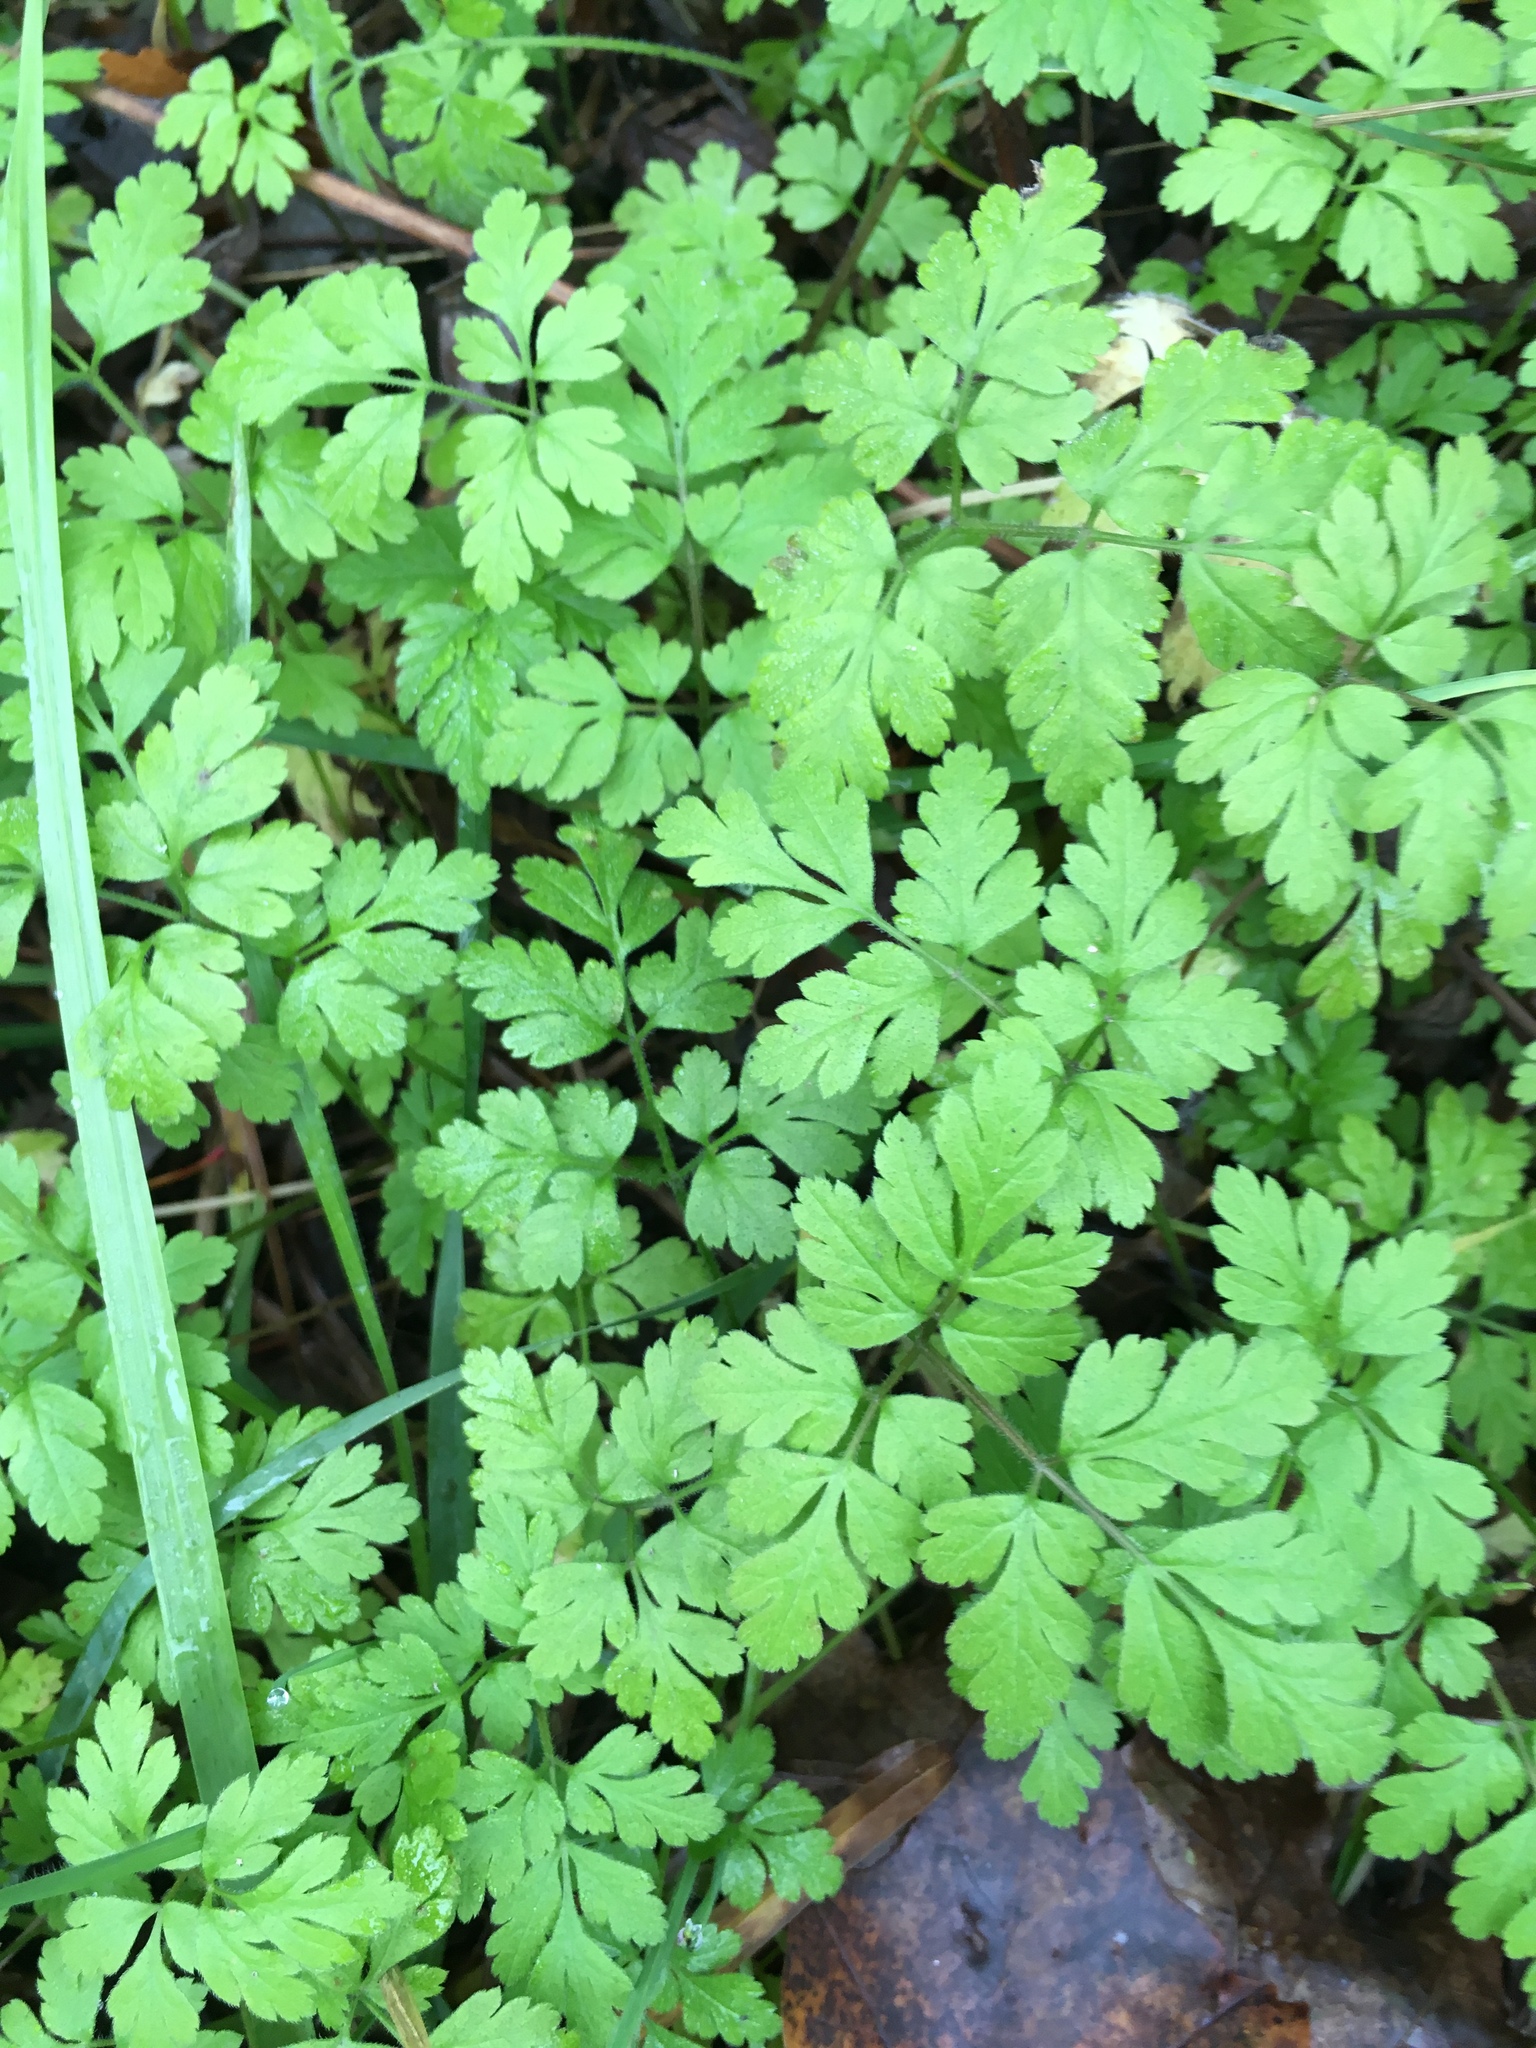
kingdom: Plantae
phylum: Tracheophyta
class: Magnoliopsida
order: Geraniales
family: Geraniaceae
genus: Geranium
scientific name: Geranium robertianum
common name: Herb-robert
